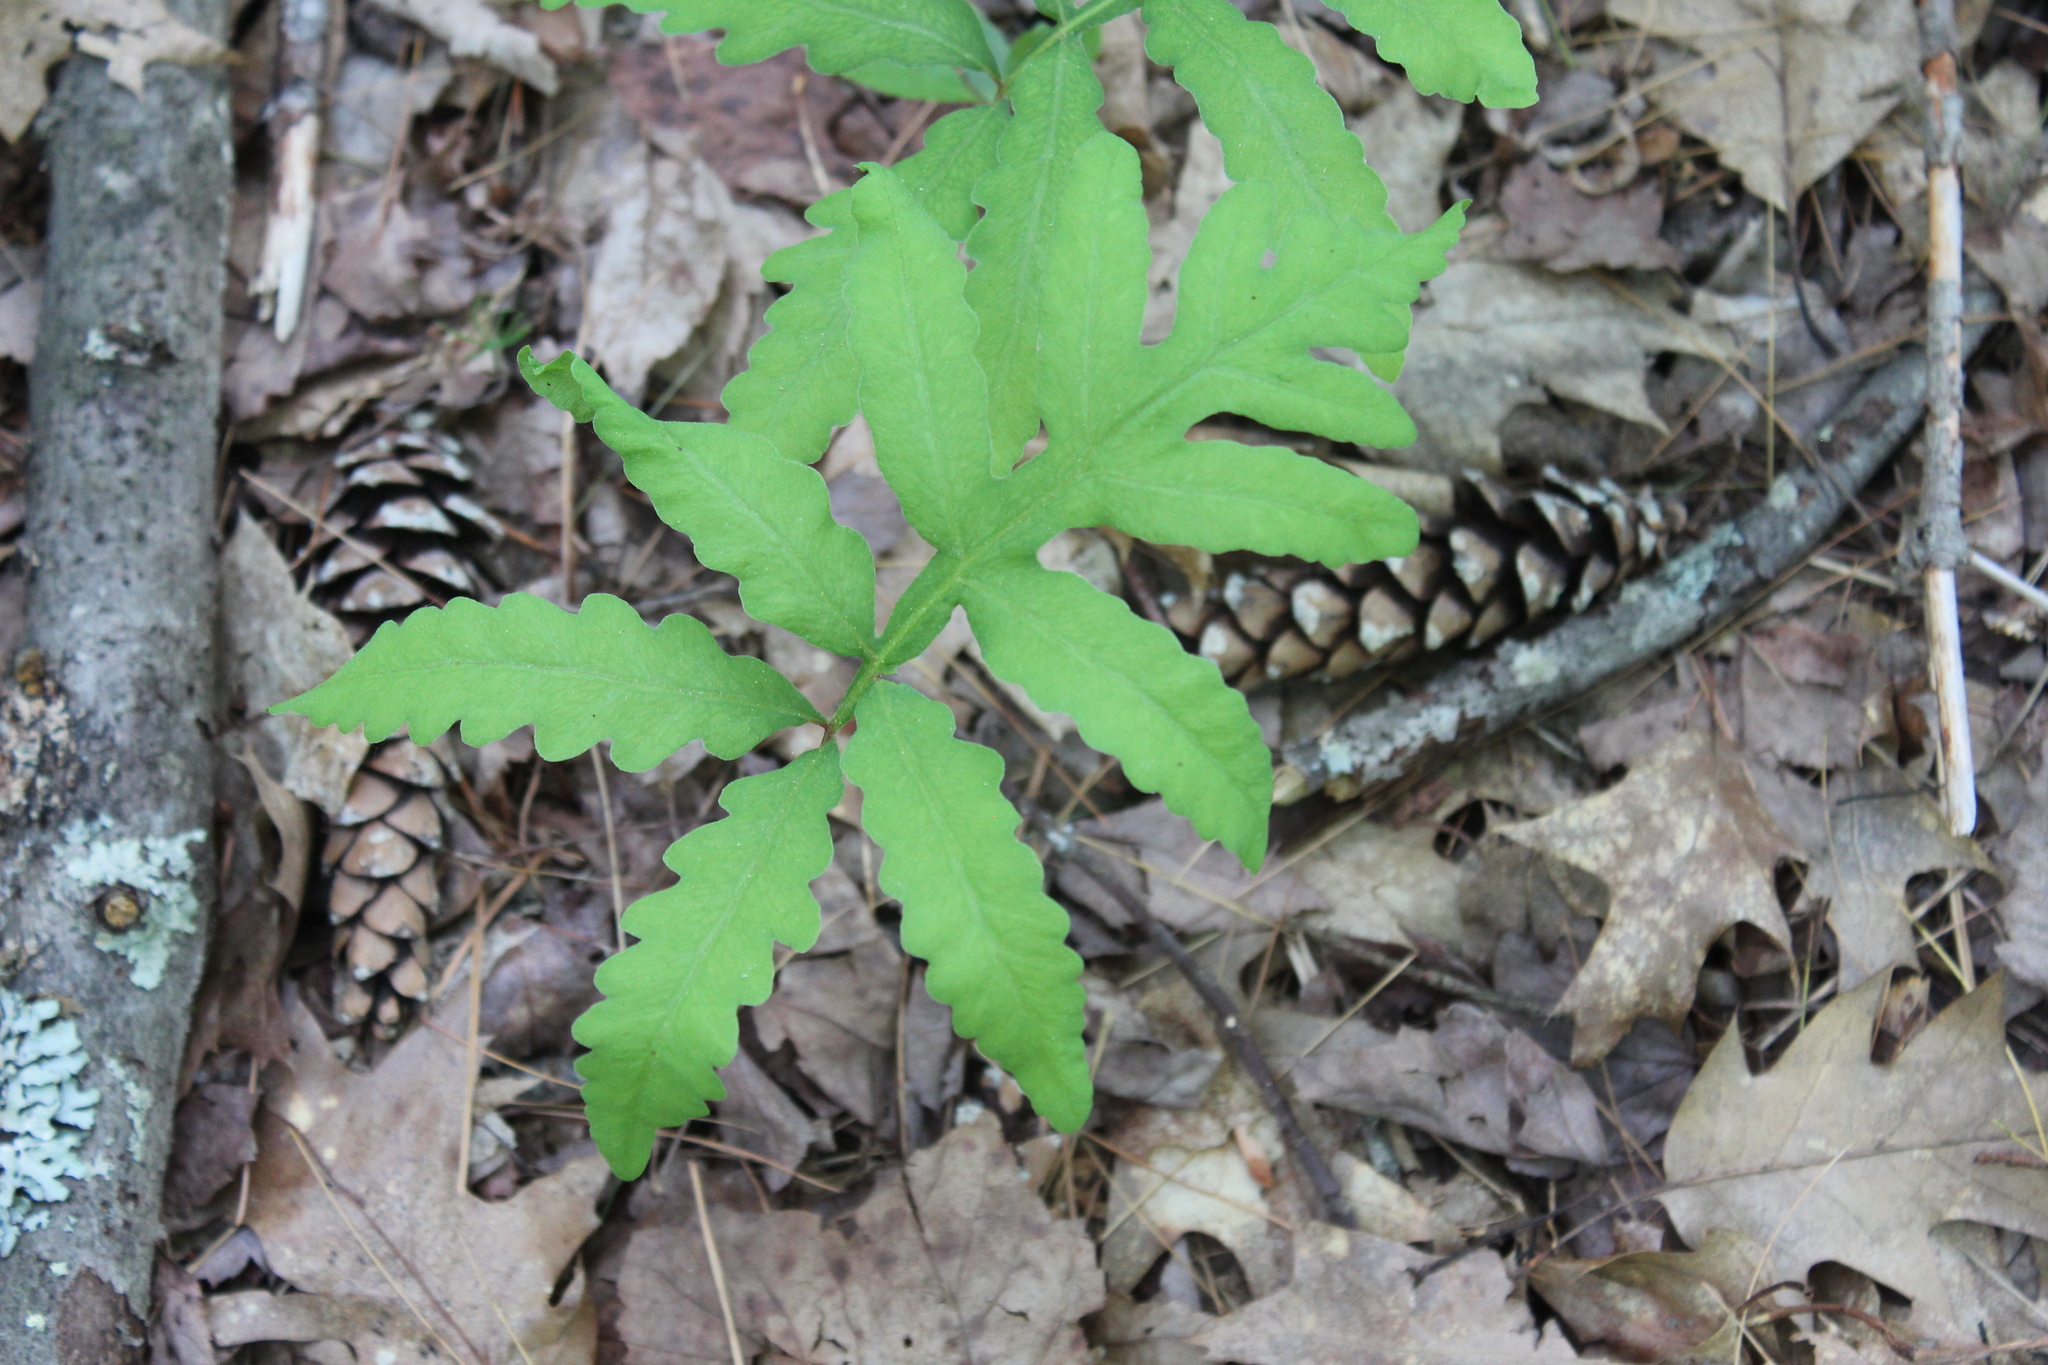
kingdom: Plantae
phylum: Tracheophyta
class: Polypodiopsida
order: Polypodiales
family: Onocleaceae
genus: Onoclea
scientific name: Onoclea sensibilis
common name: Sensitive fern
